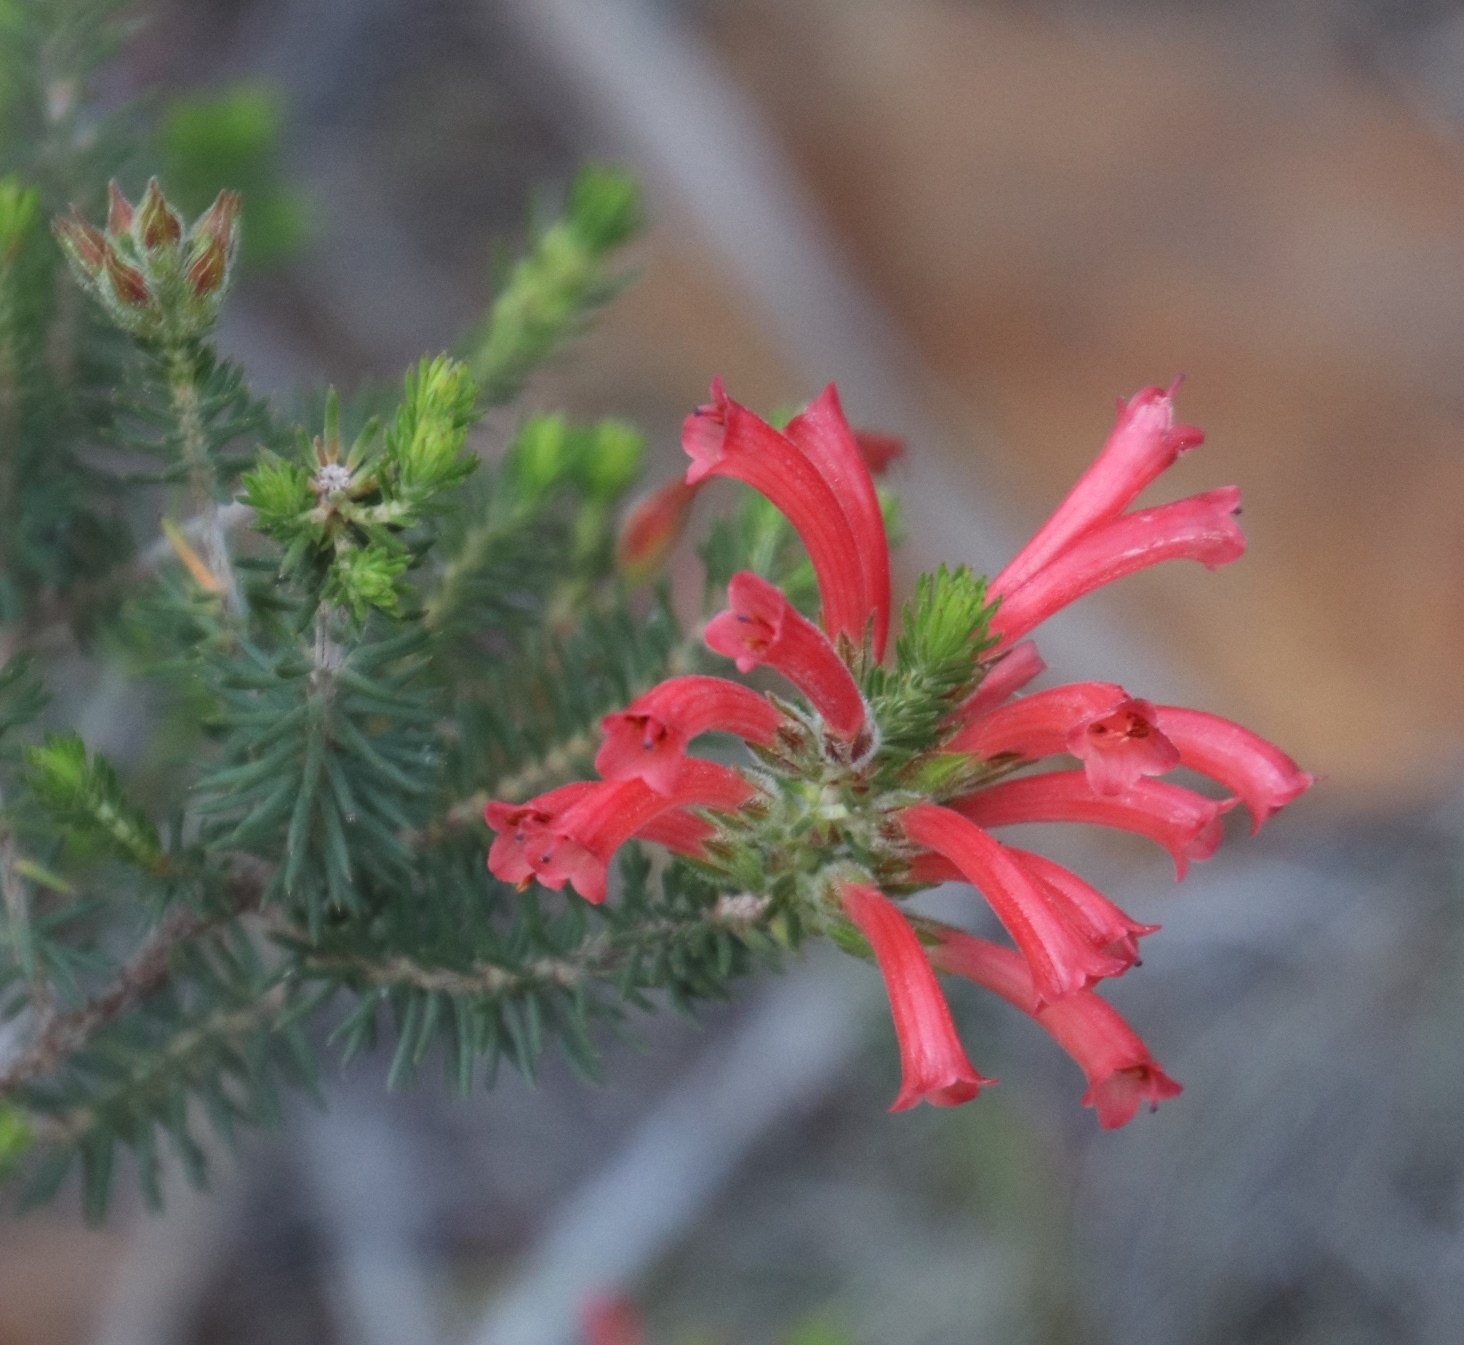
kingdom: Plantae
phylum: Tracheophyta
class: Magnoliopsida
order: Ericales
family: Ericaceae
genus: Erica
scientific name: Erica abietina
